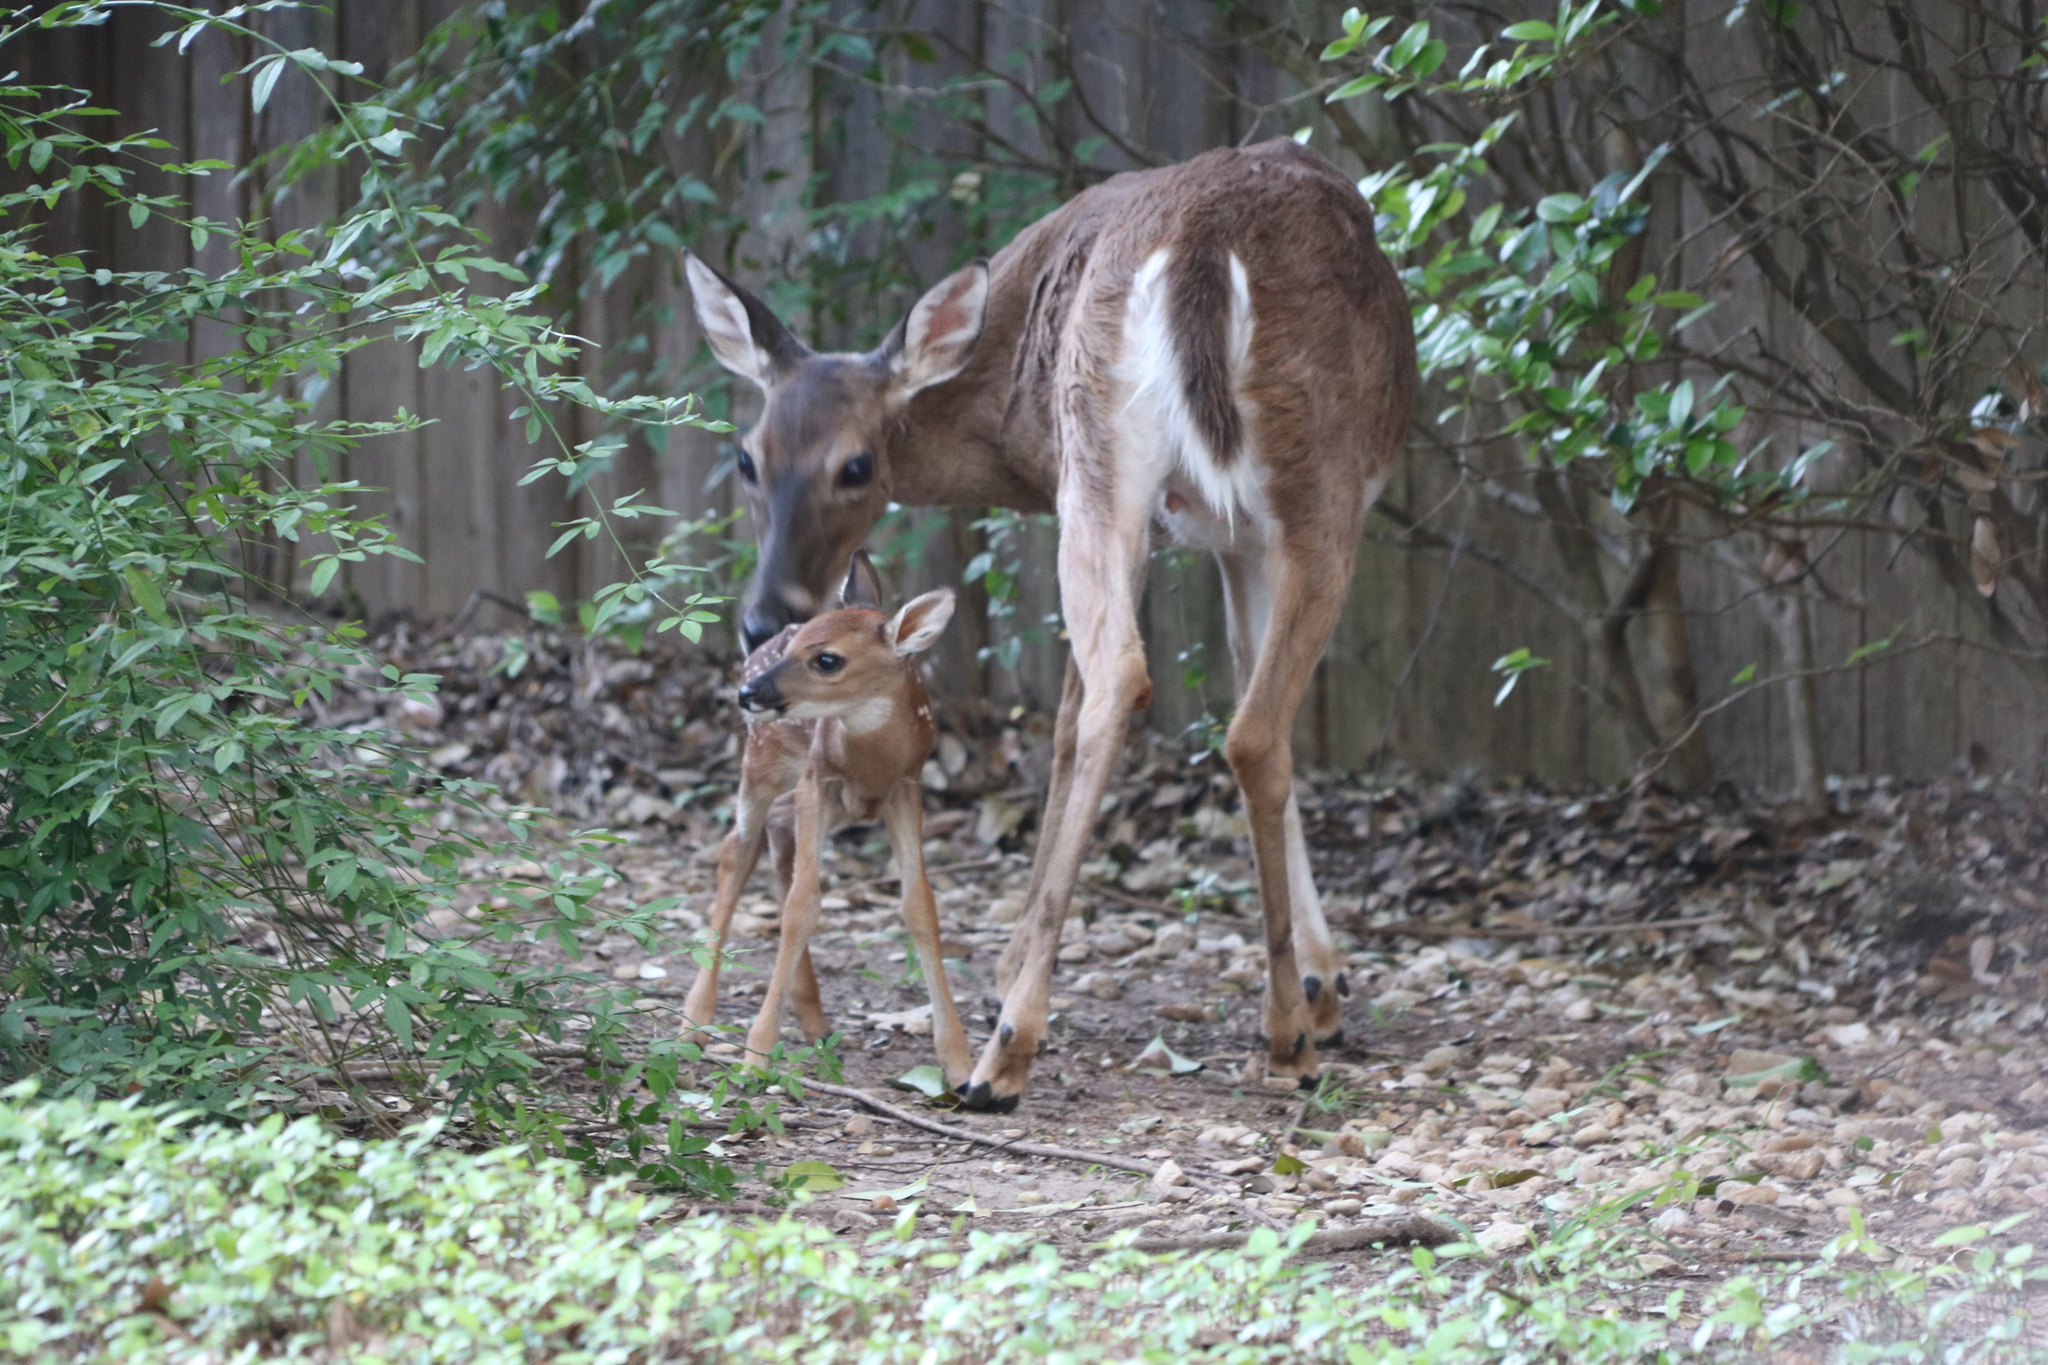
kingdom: Animalia
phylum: Chordata
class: Mammalia
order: Artiodactyla
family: Cervidae
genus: Odocoileus
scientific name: Odocoileus virginianus
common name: White-tailed deer
